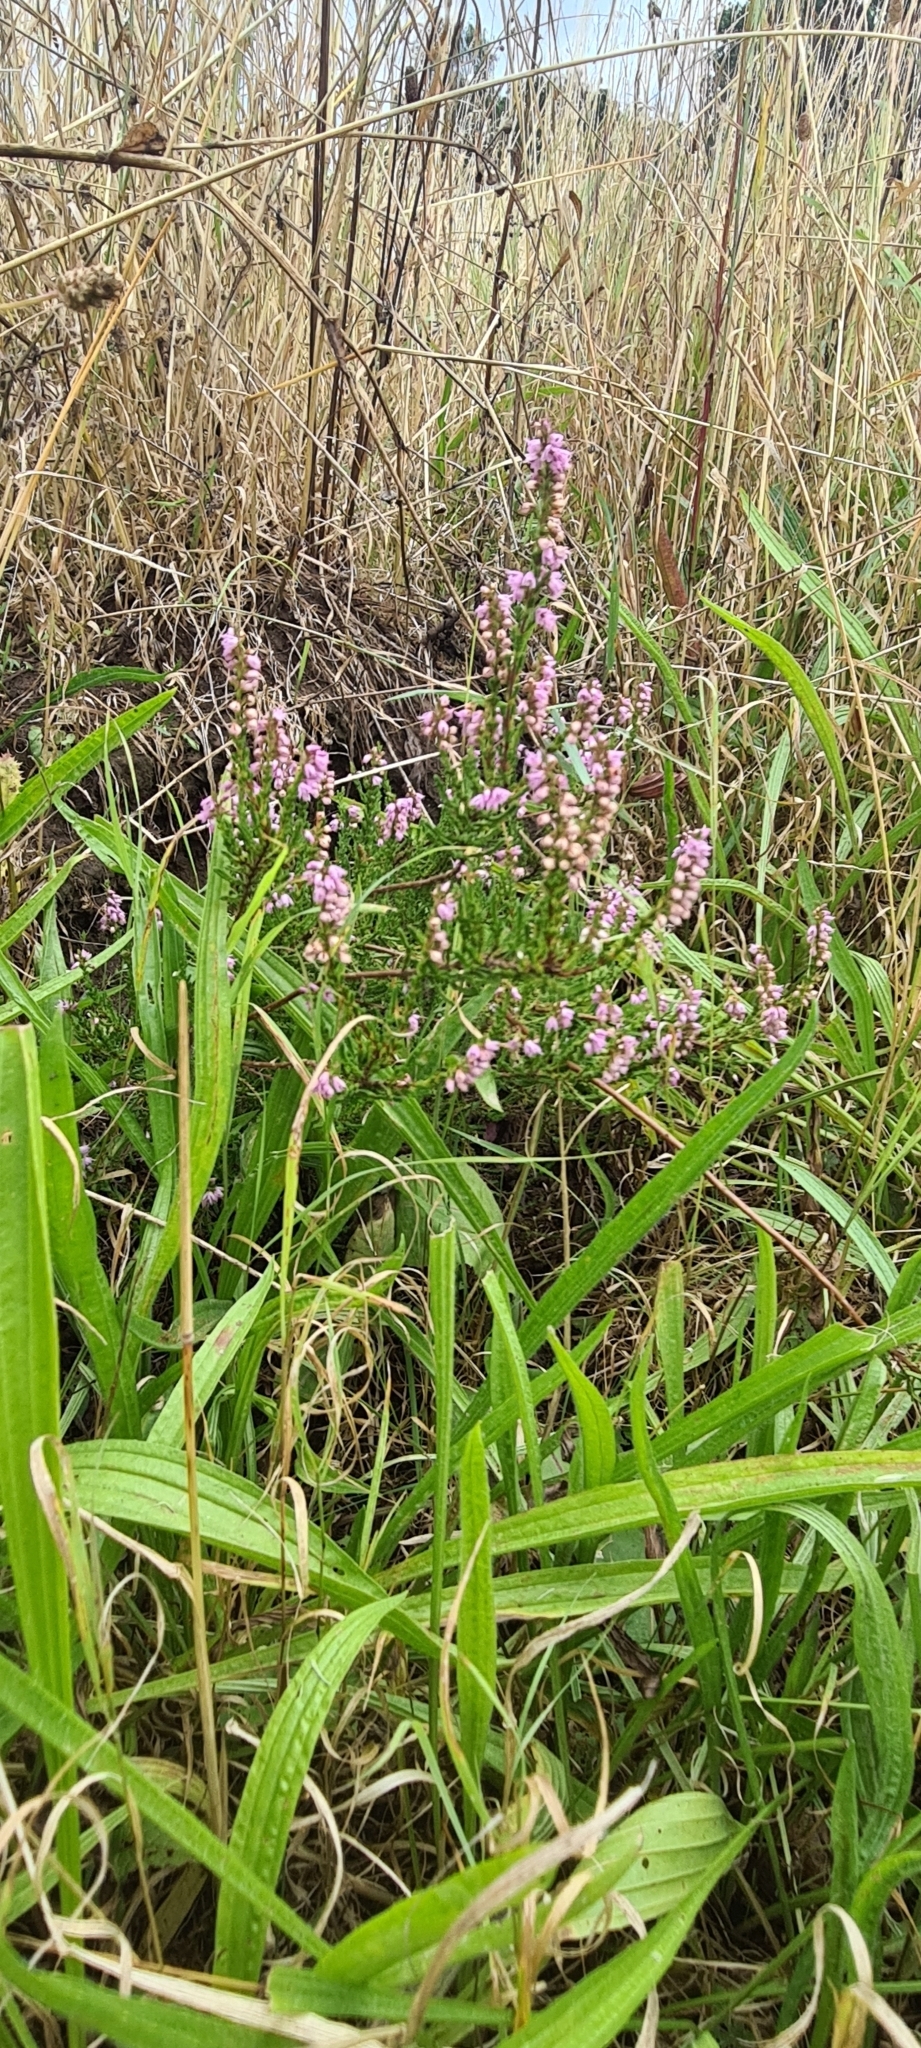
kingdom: Plantae
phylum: Tracheophyta
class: Magnoliopsida
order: Ericales
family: Ericaceae
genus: Calluna
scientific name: Calluna vulgaris
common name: Heather
